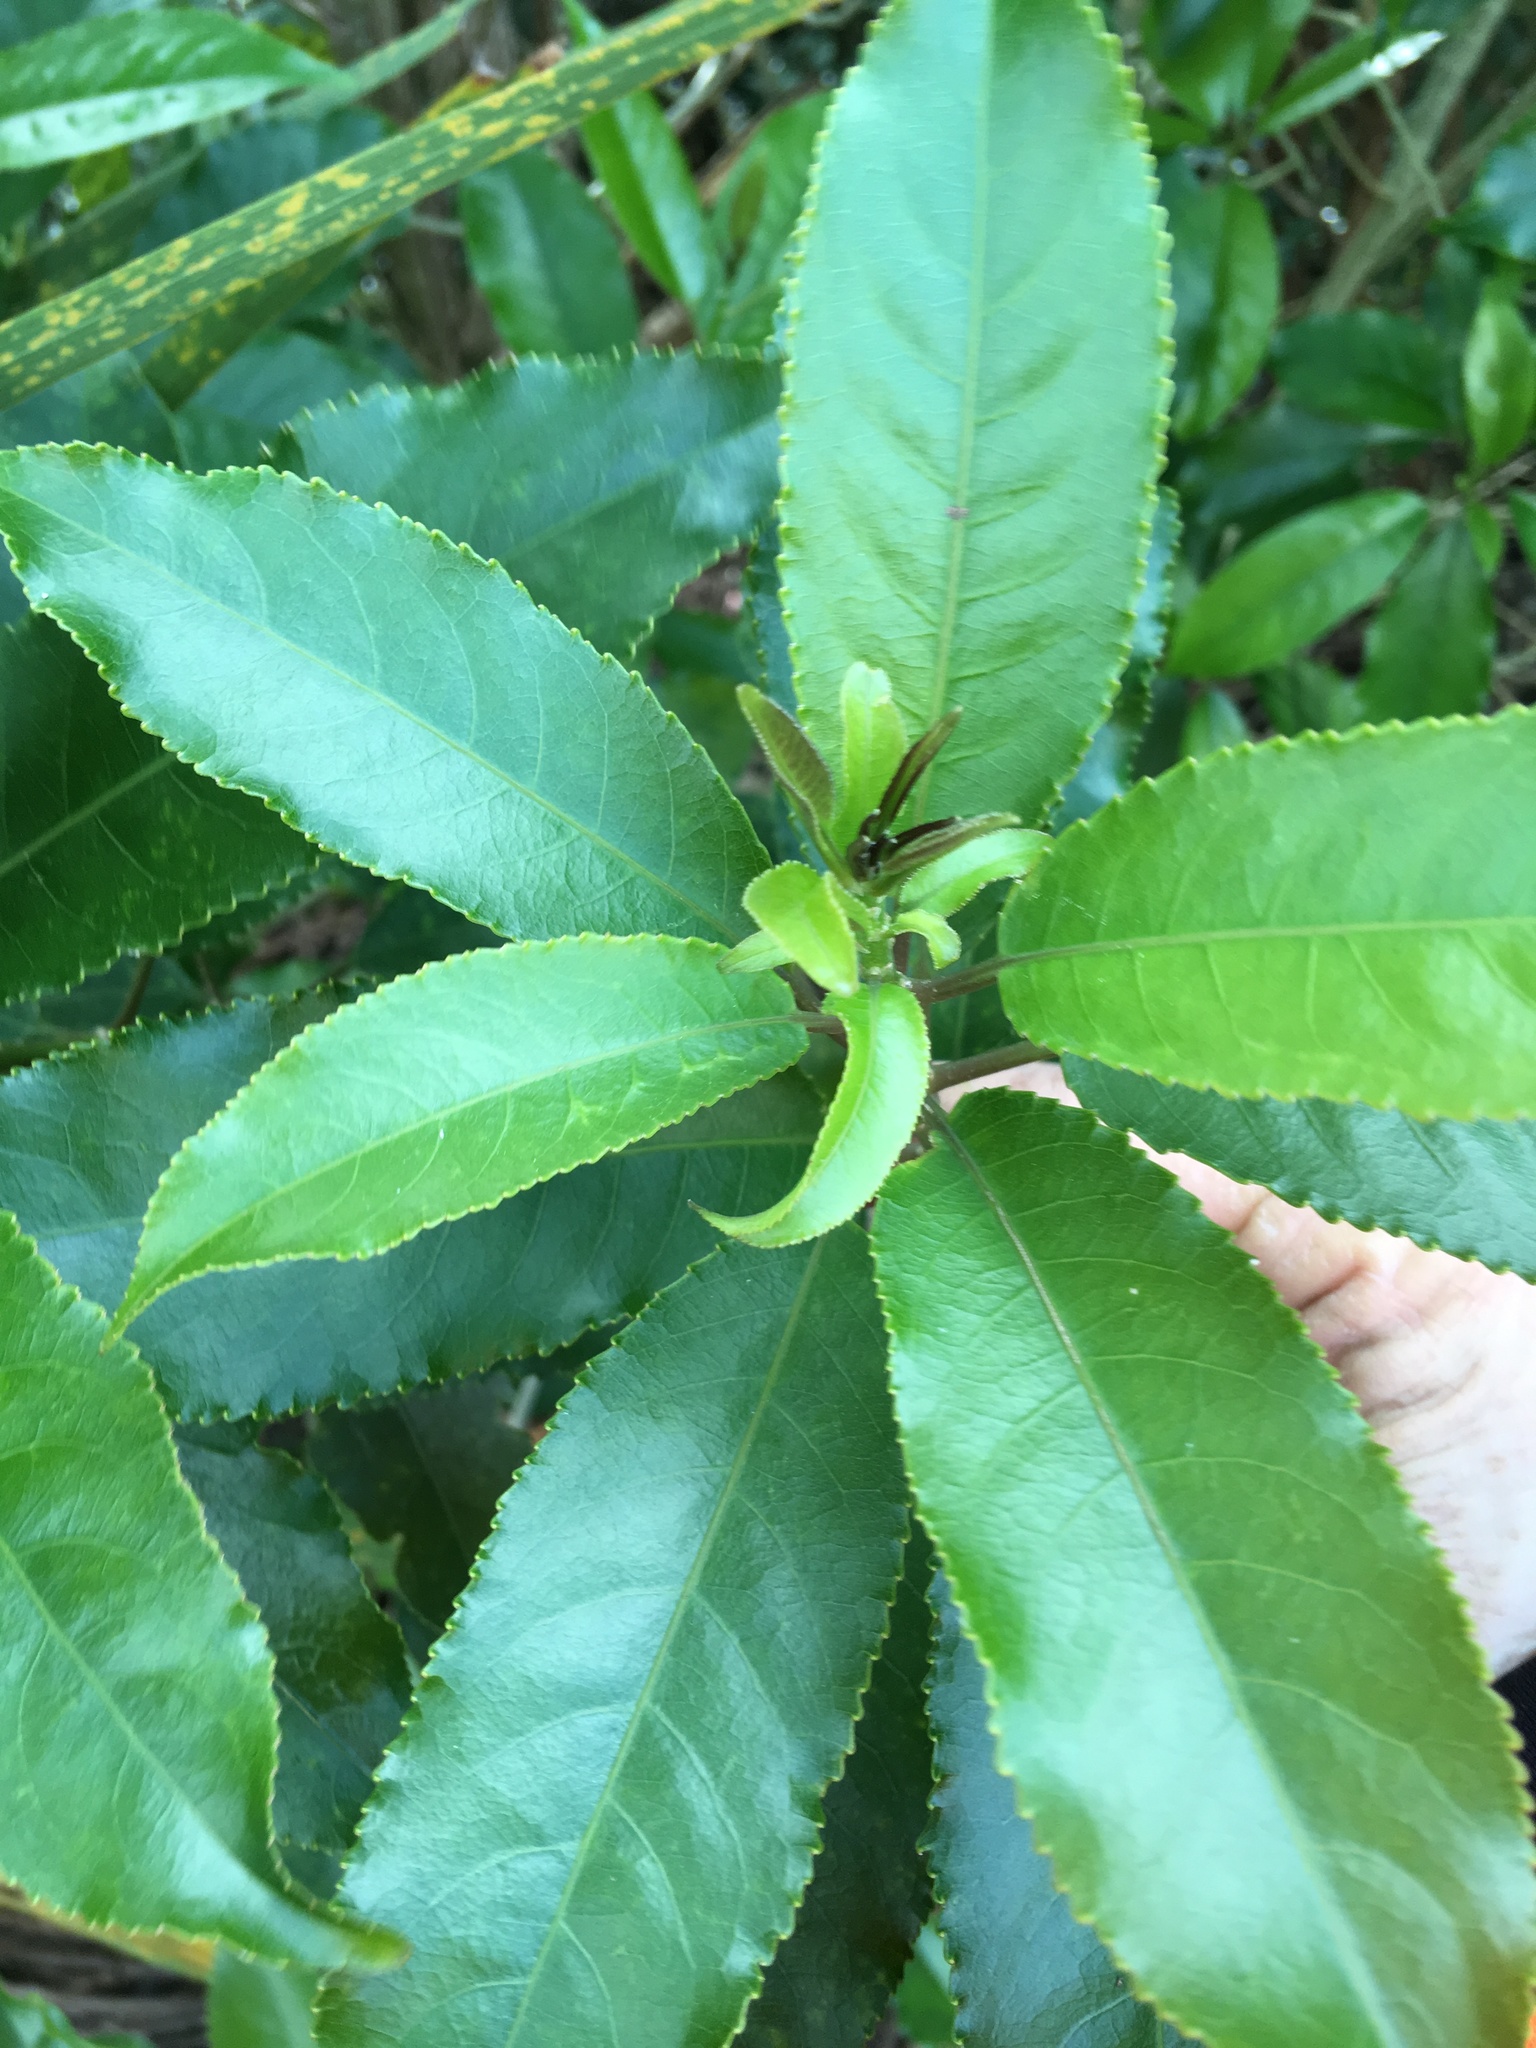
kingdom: Plantae
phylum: Tracheophyta
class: Magnoliopsida
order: Malpighiales
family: Violaceae
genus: Melicytus
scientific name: Melicytus ramiflorus
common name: Mahoe
